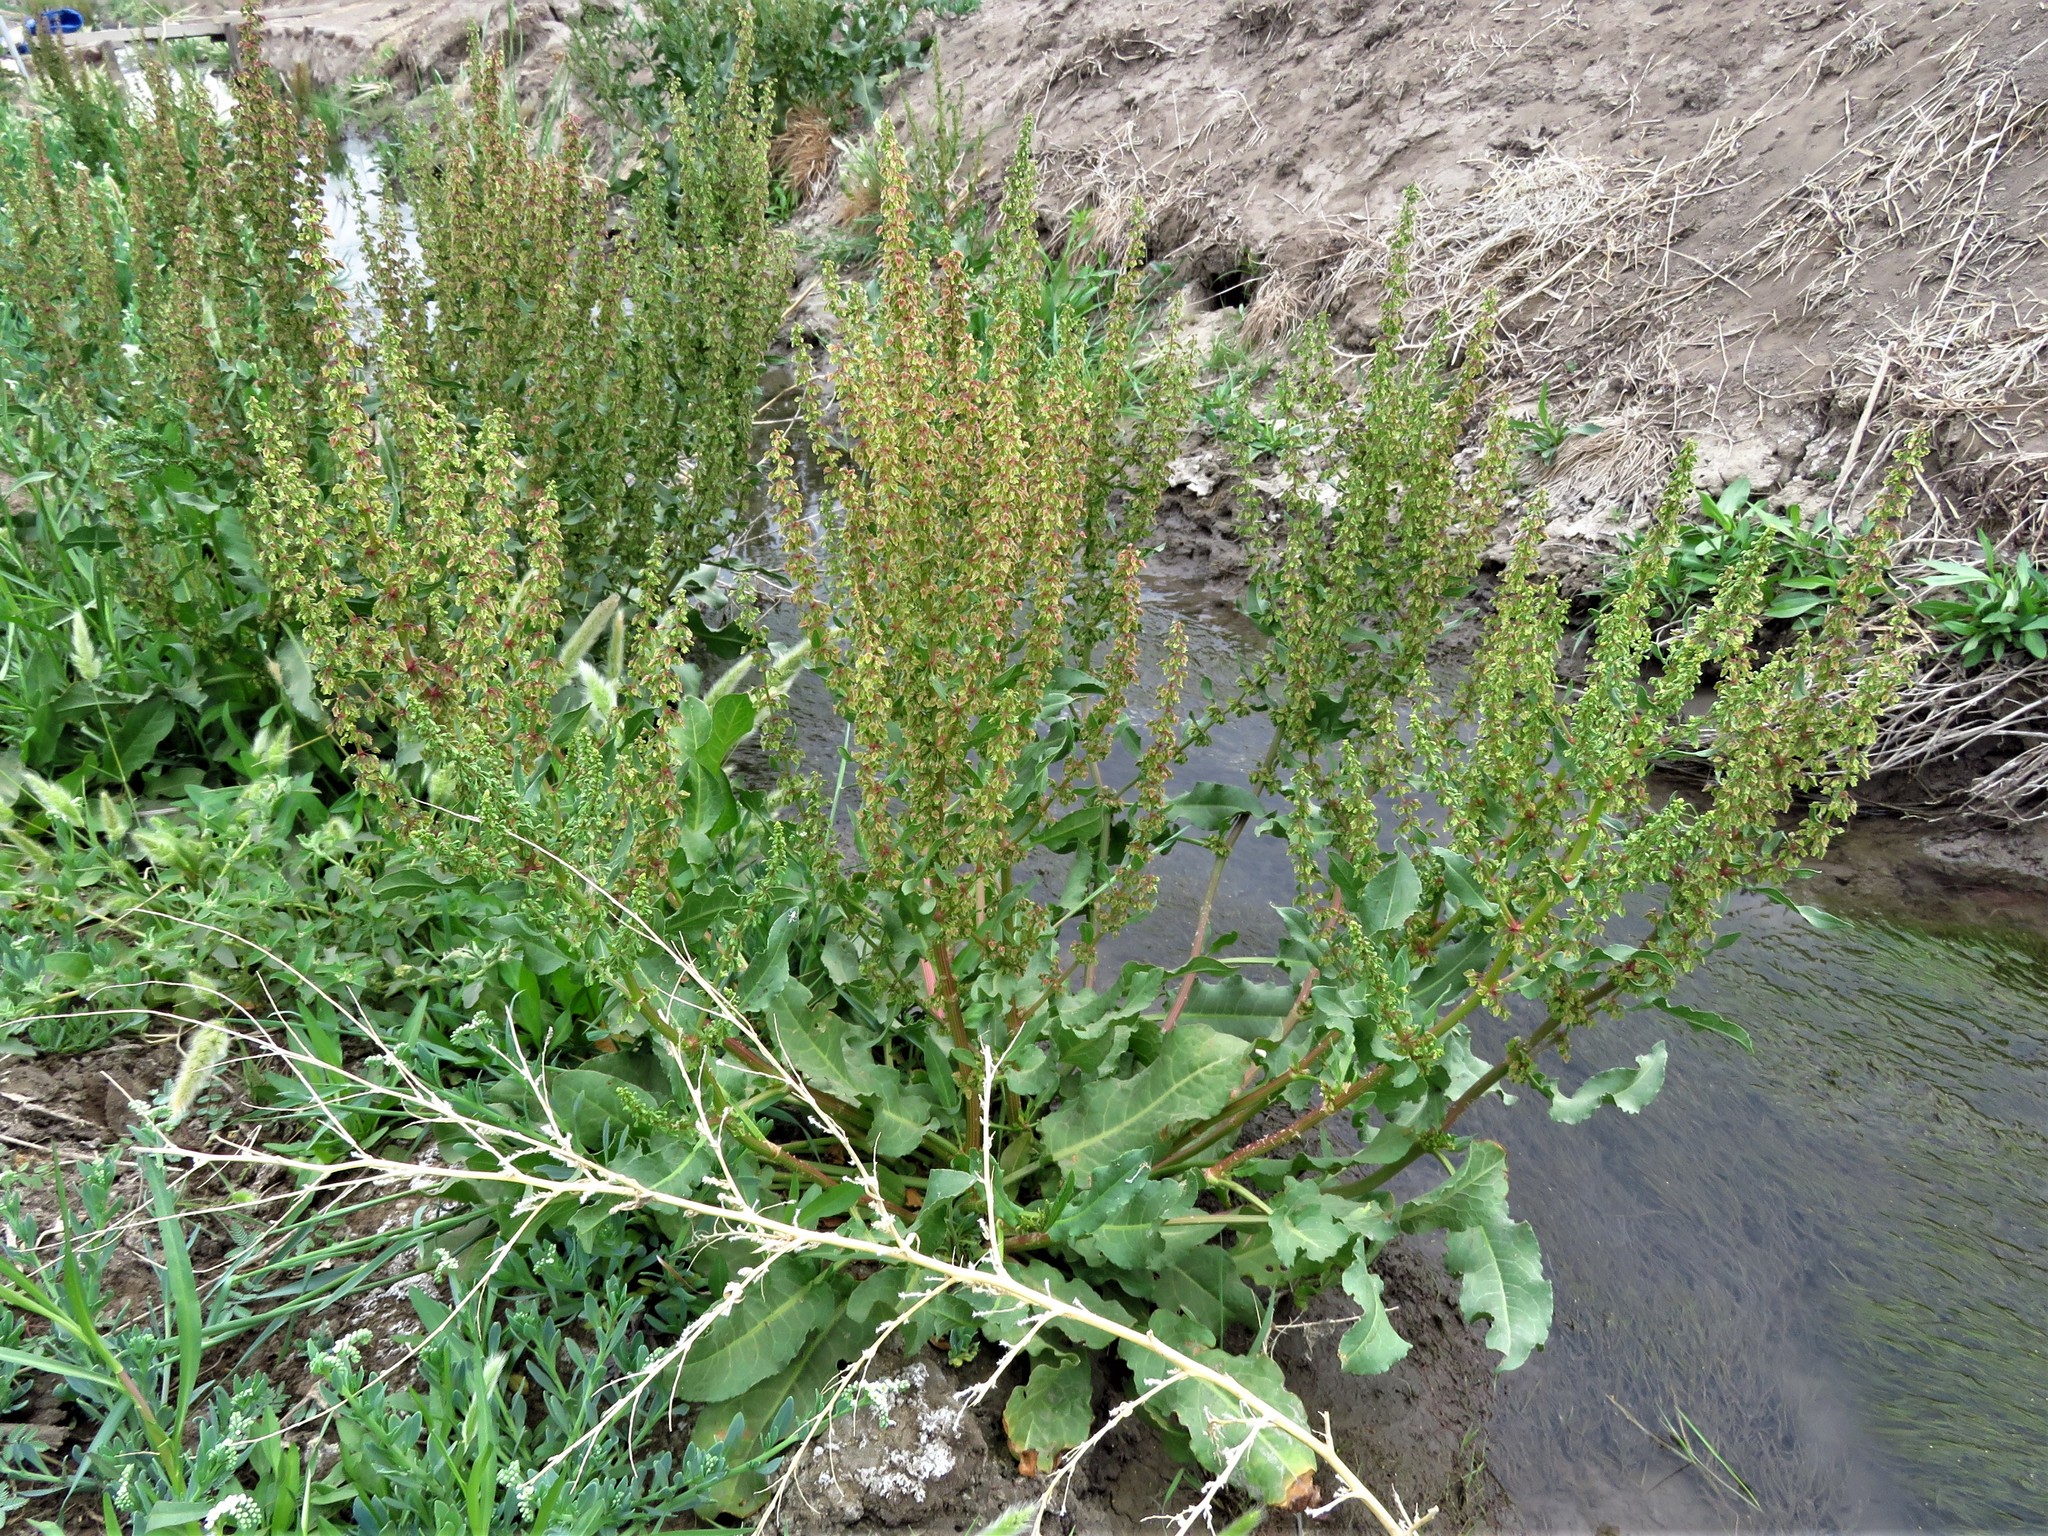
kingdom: Plantae
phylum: Tracheophyta
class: Magnoliopsida
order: Caryophyllales
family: Polygonaceae
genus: Rumex
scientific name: Rumex obtusifolius
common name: Bitter dock
